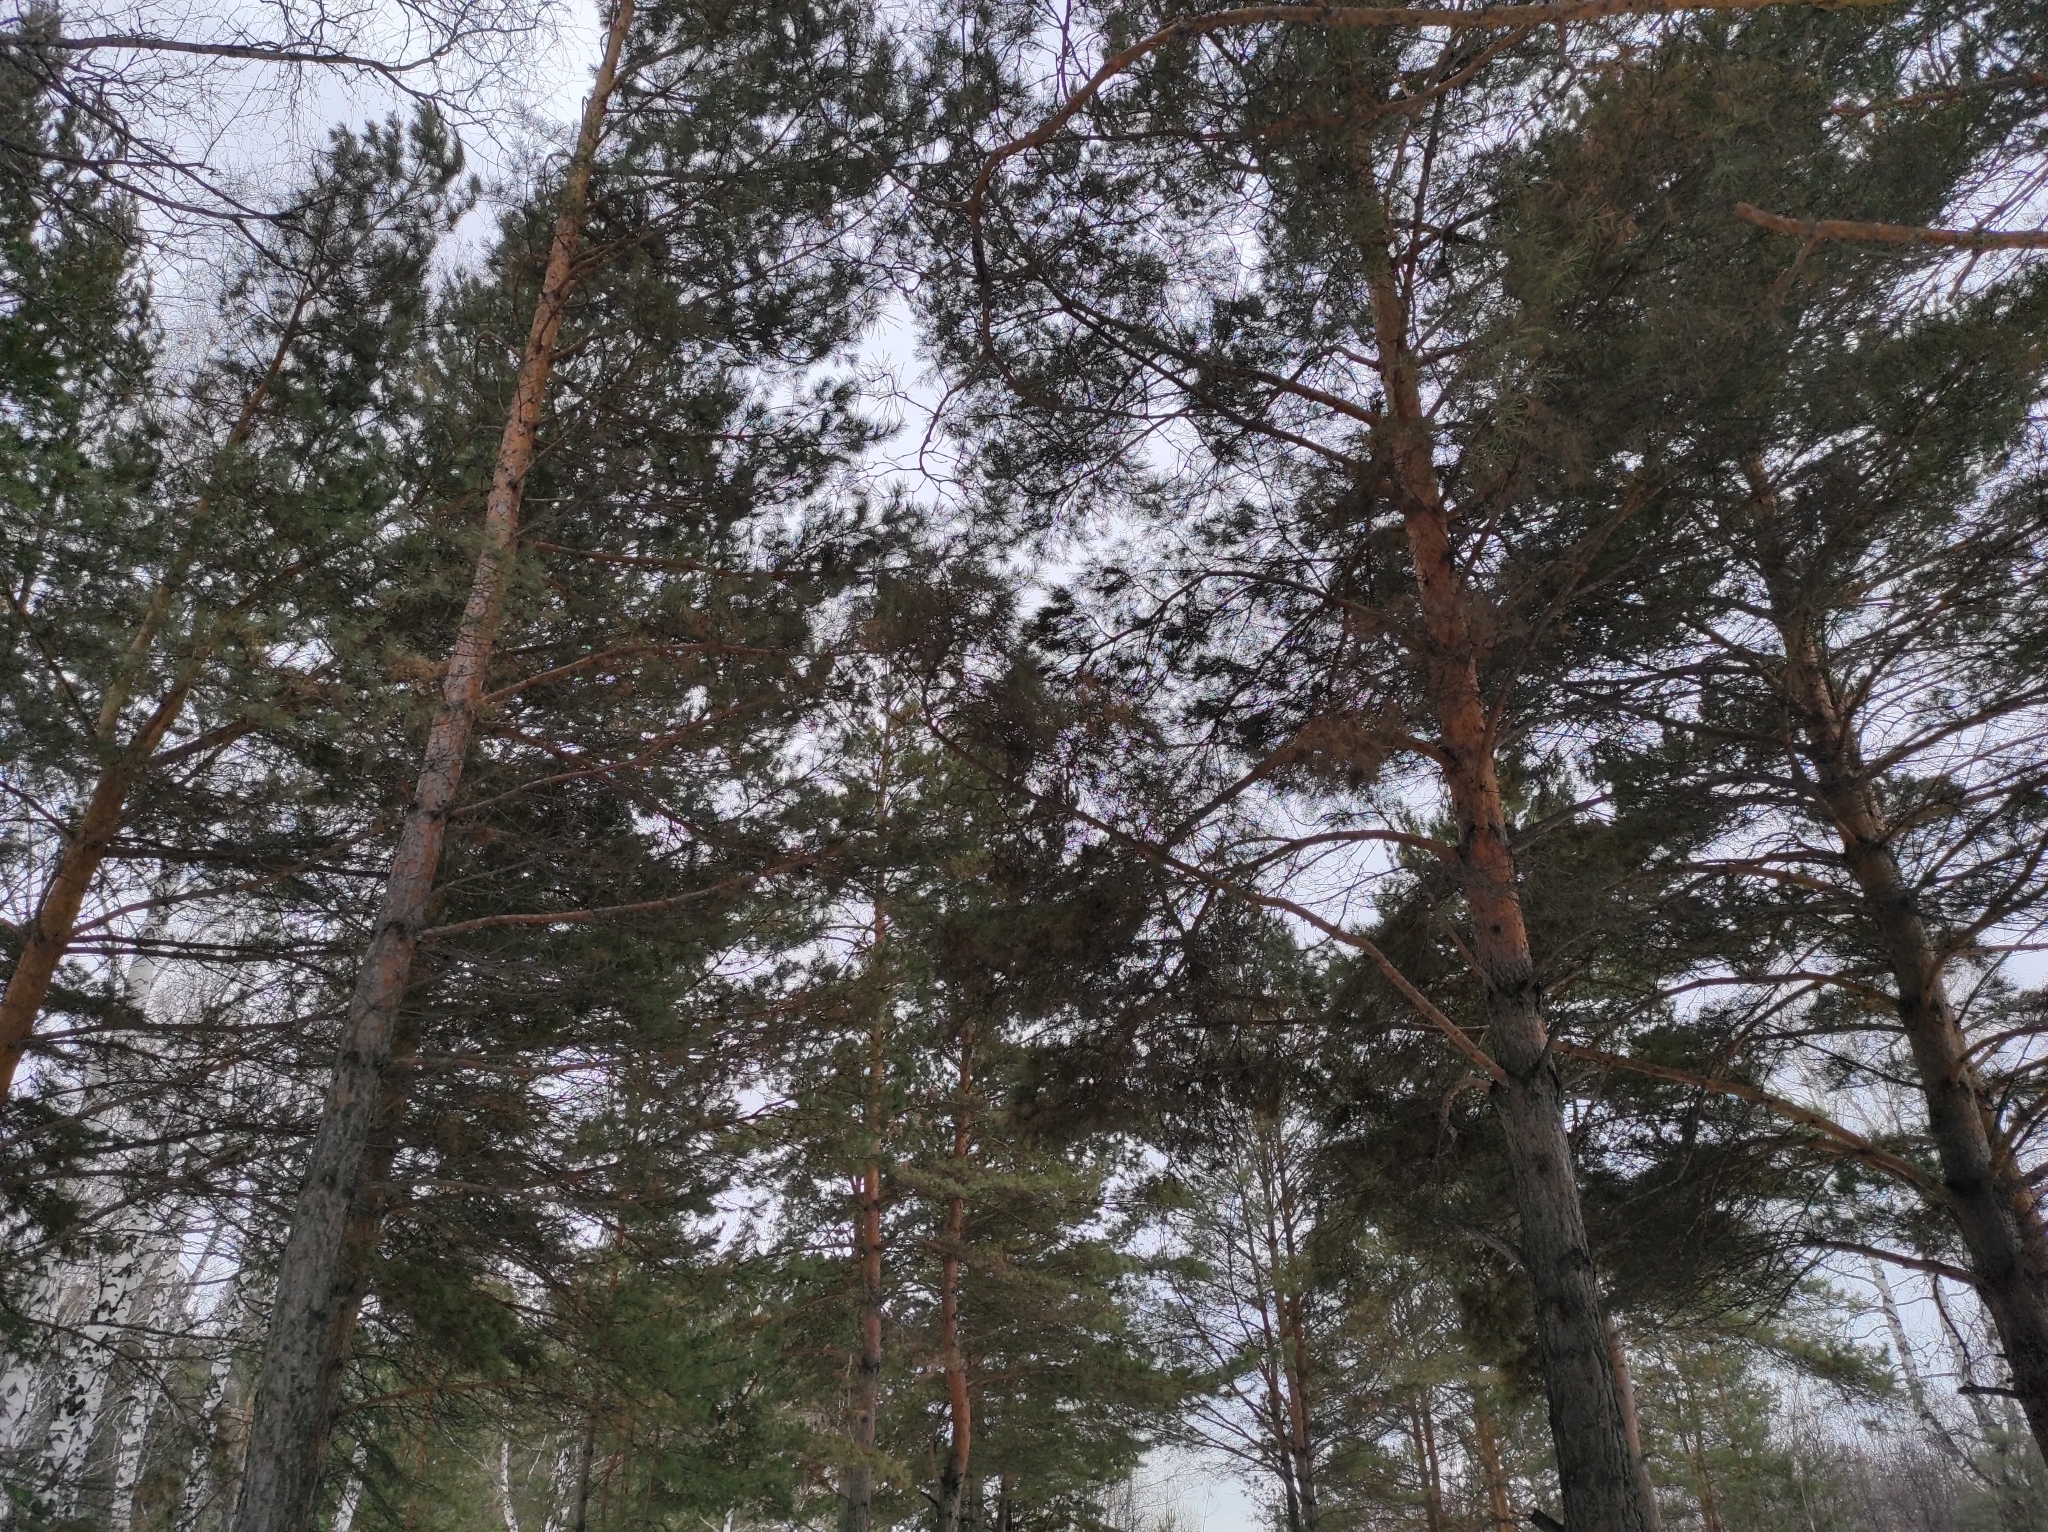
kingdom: Plantae
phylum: Tracheophyta
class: Pinopsida
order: Pinales
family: Pinaceae
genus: Pinus
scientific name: Pinus sylvestris
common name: Scots pine
